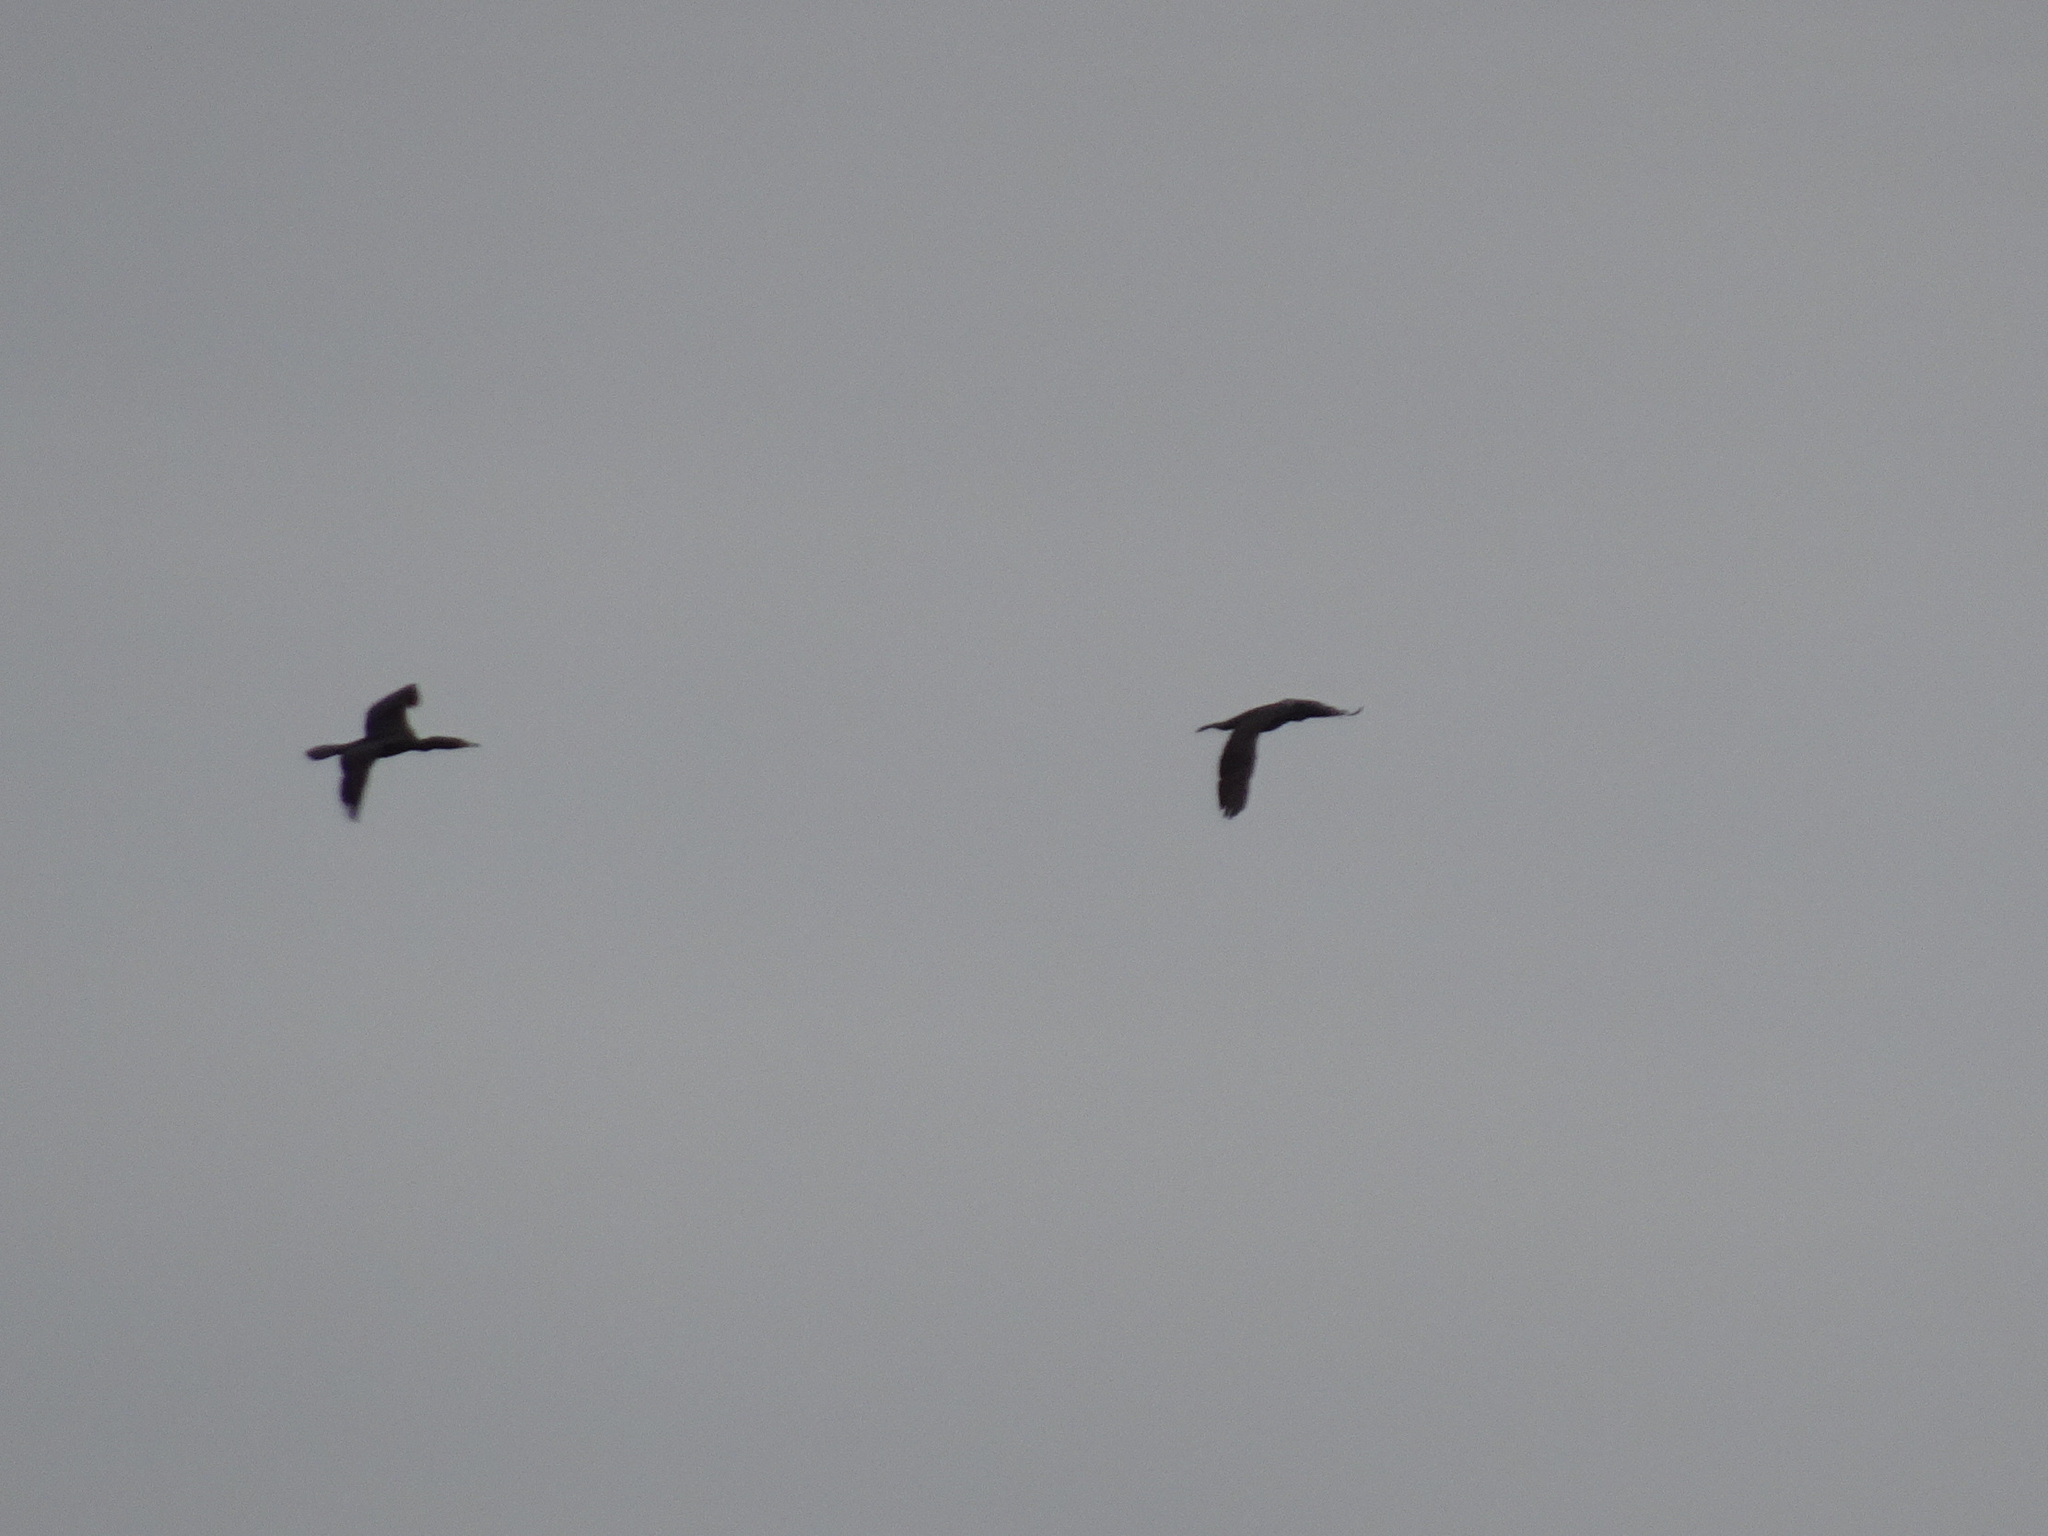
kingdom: Animalia
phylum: Chordata
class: Aves
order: Suliformes
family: Phalacrocoracidae
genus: Phalacrocorax
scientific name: Phalacrocorax auritus
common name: Double-crested cormorant
